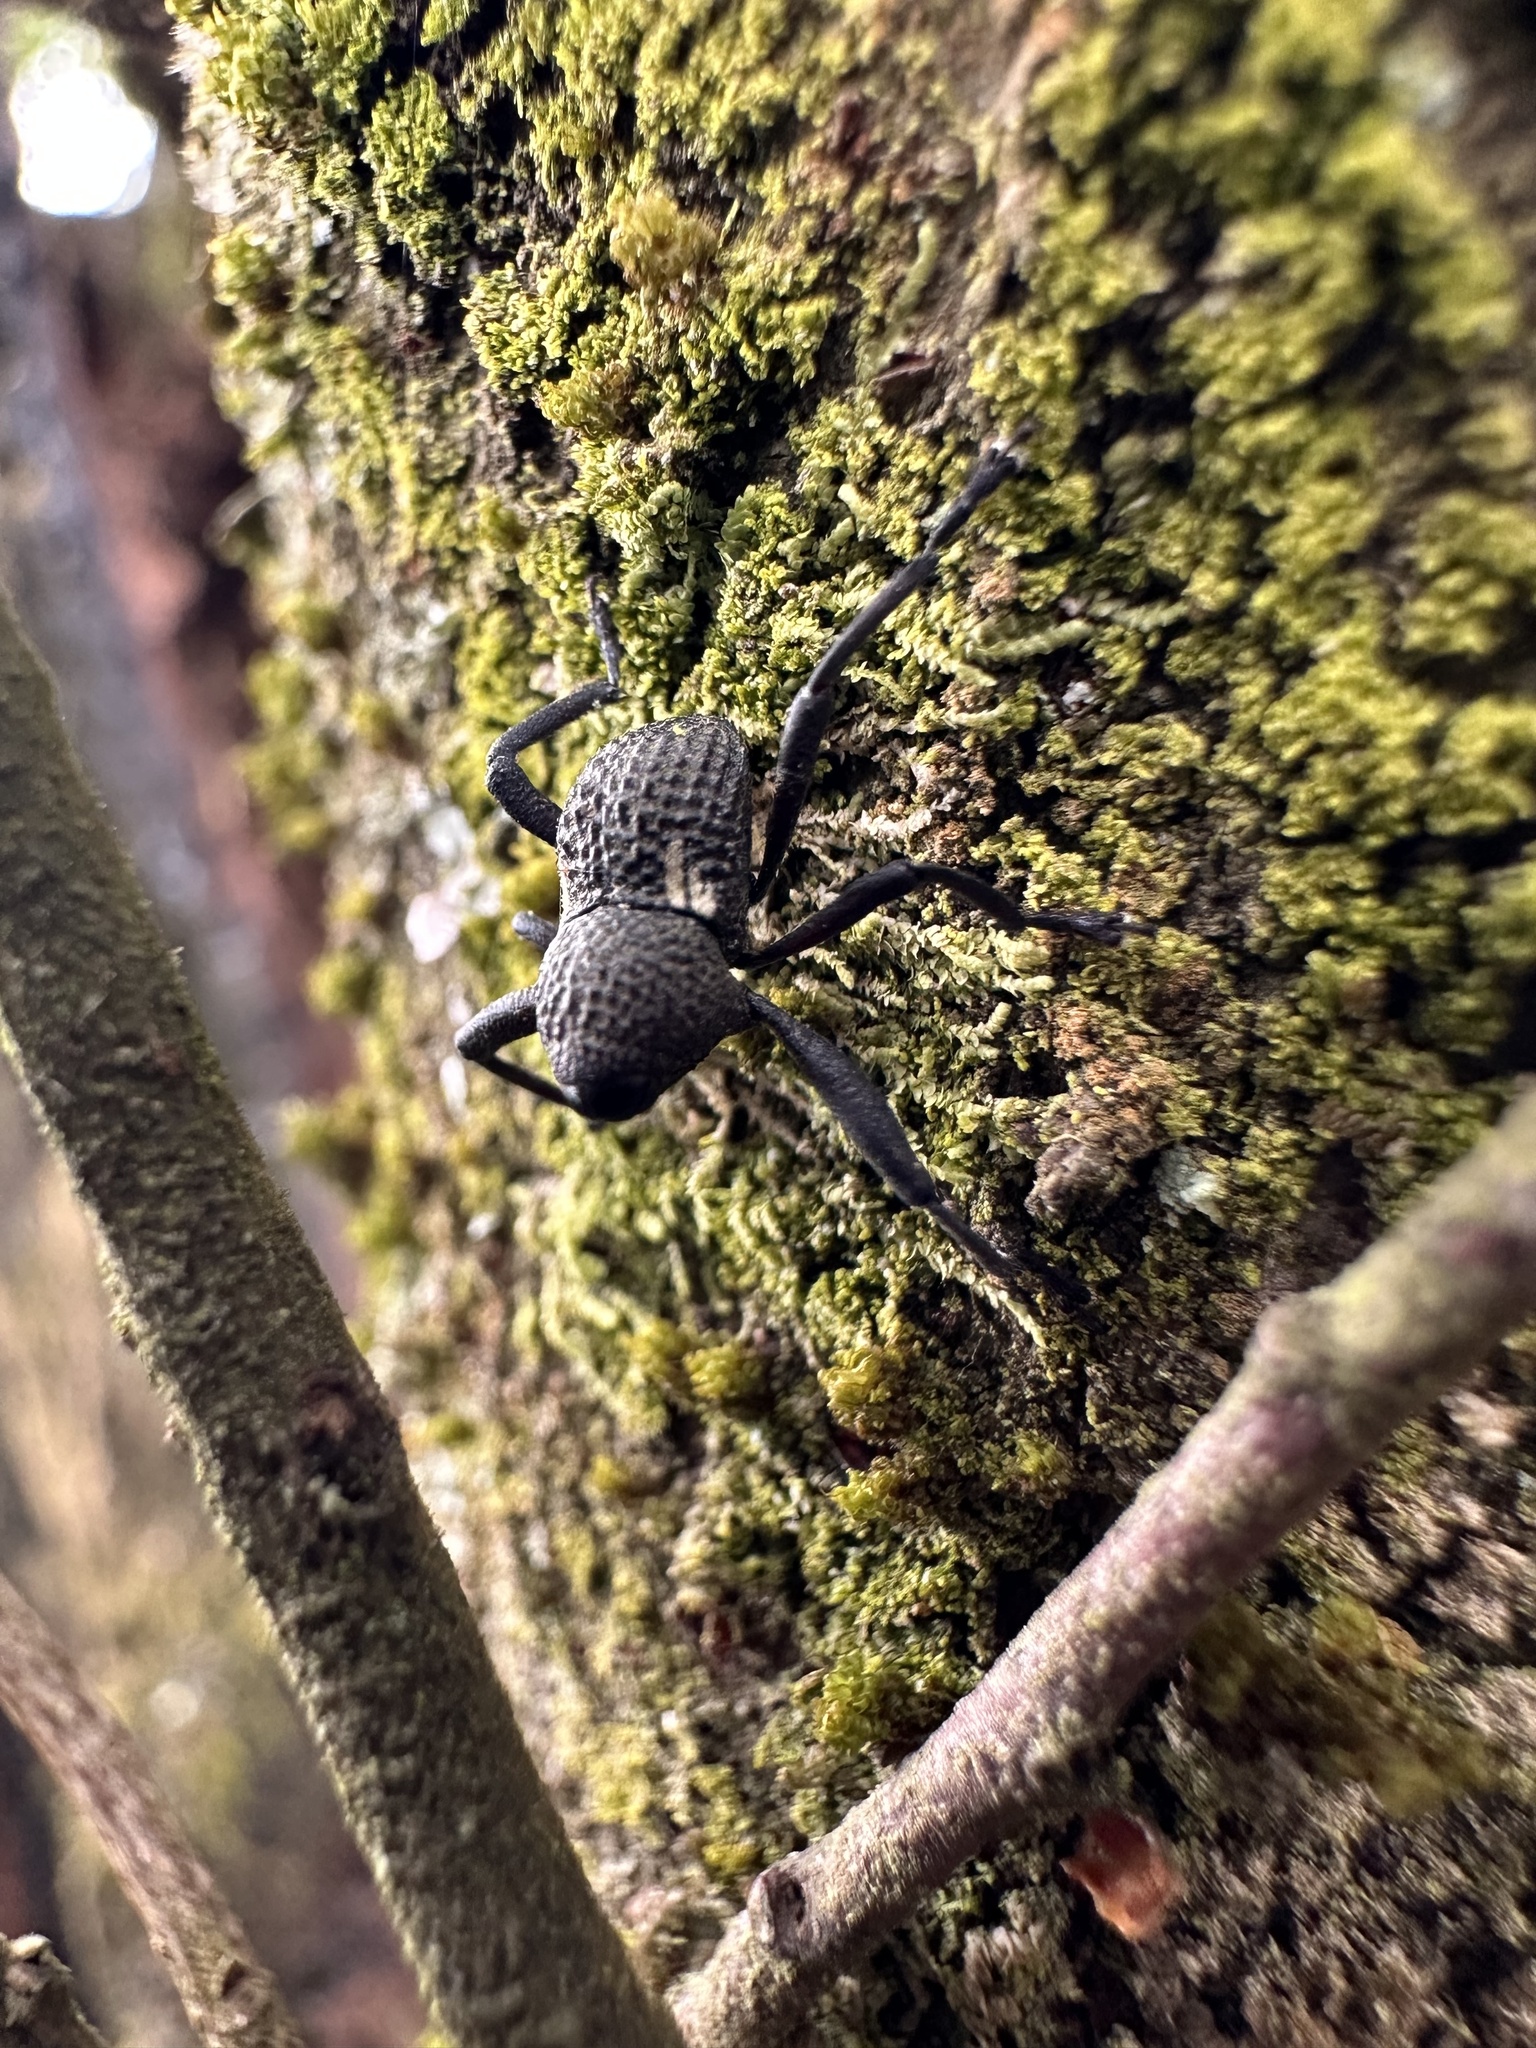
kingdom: Animalia
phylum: Arthropoda
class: Insecta
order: Coleoptera
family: Curculionidae
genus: Rhyephenes
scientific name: Rhyephenes humeralis
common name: Araè±ita chilena del pino
